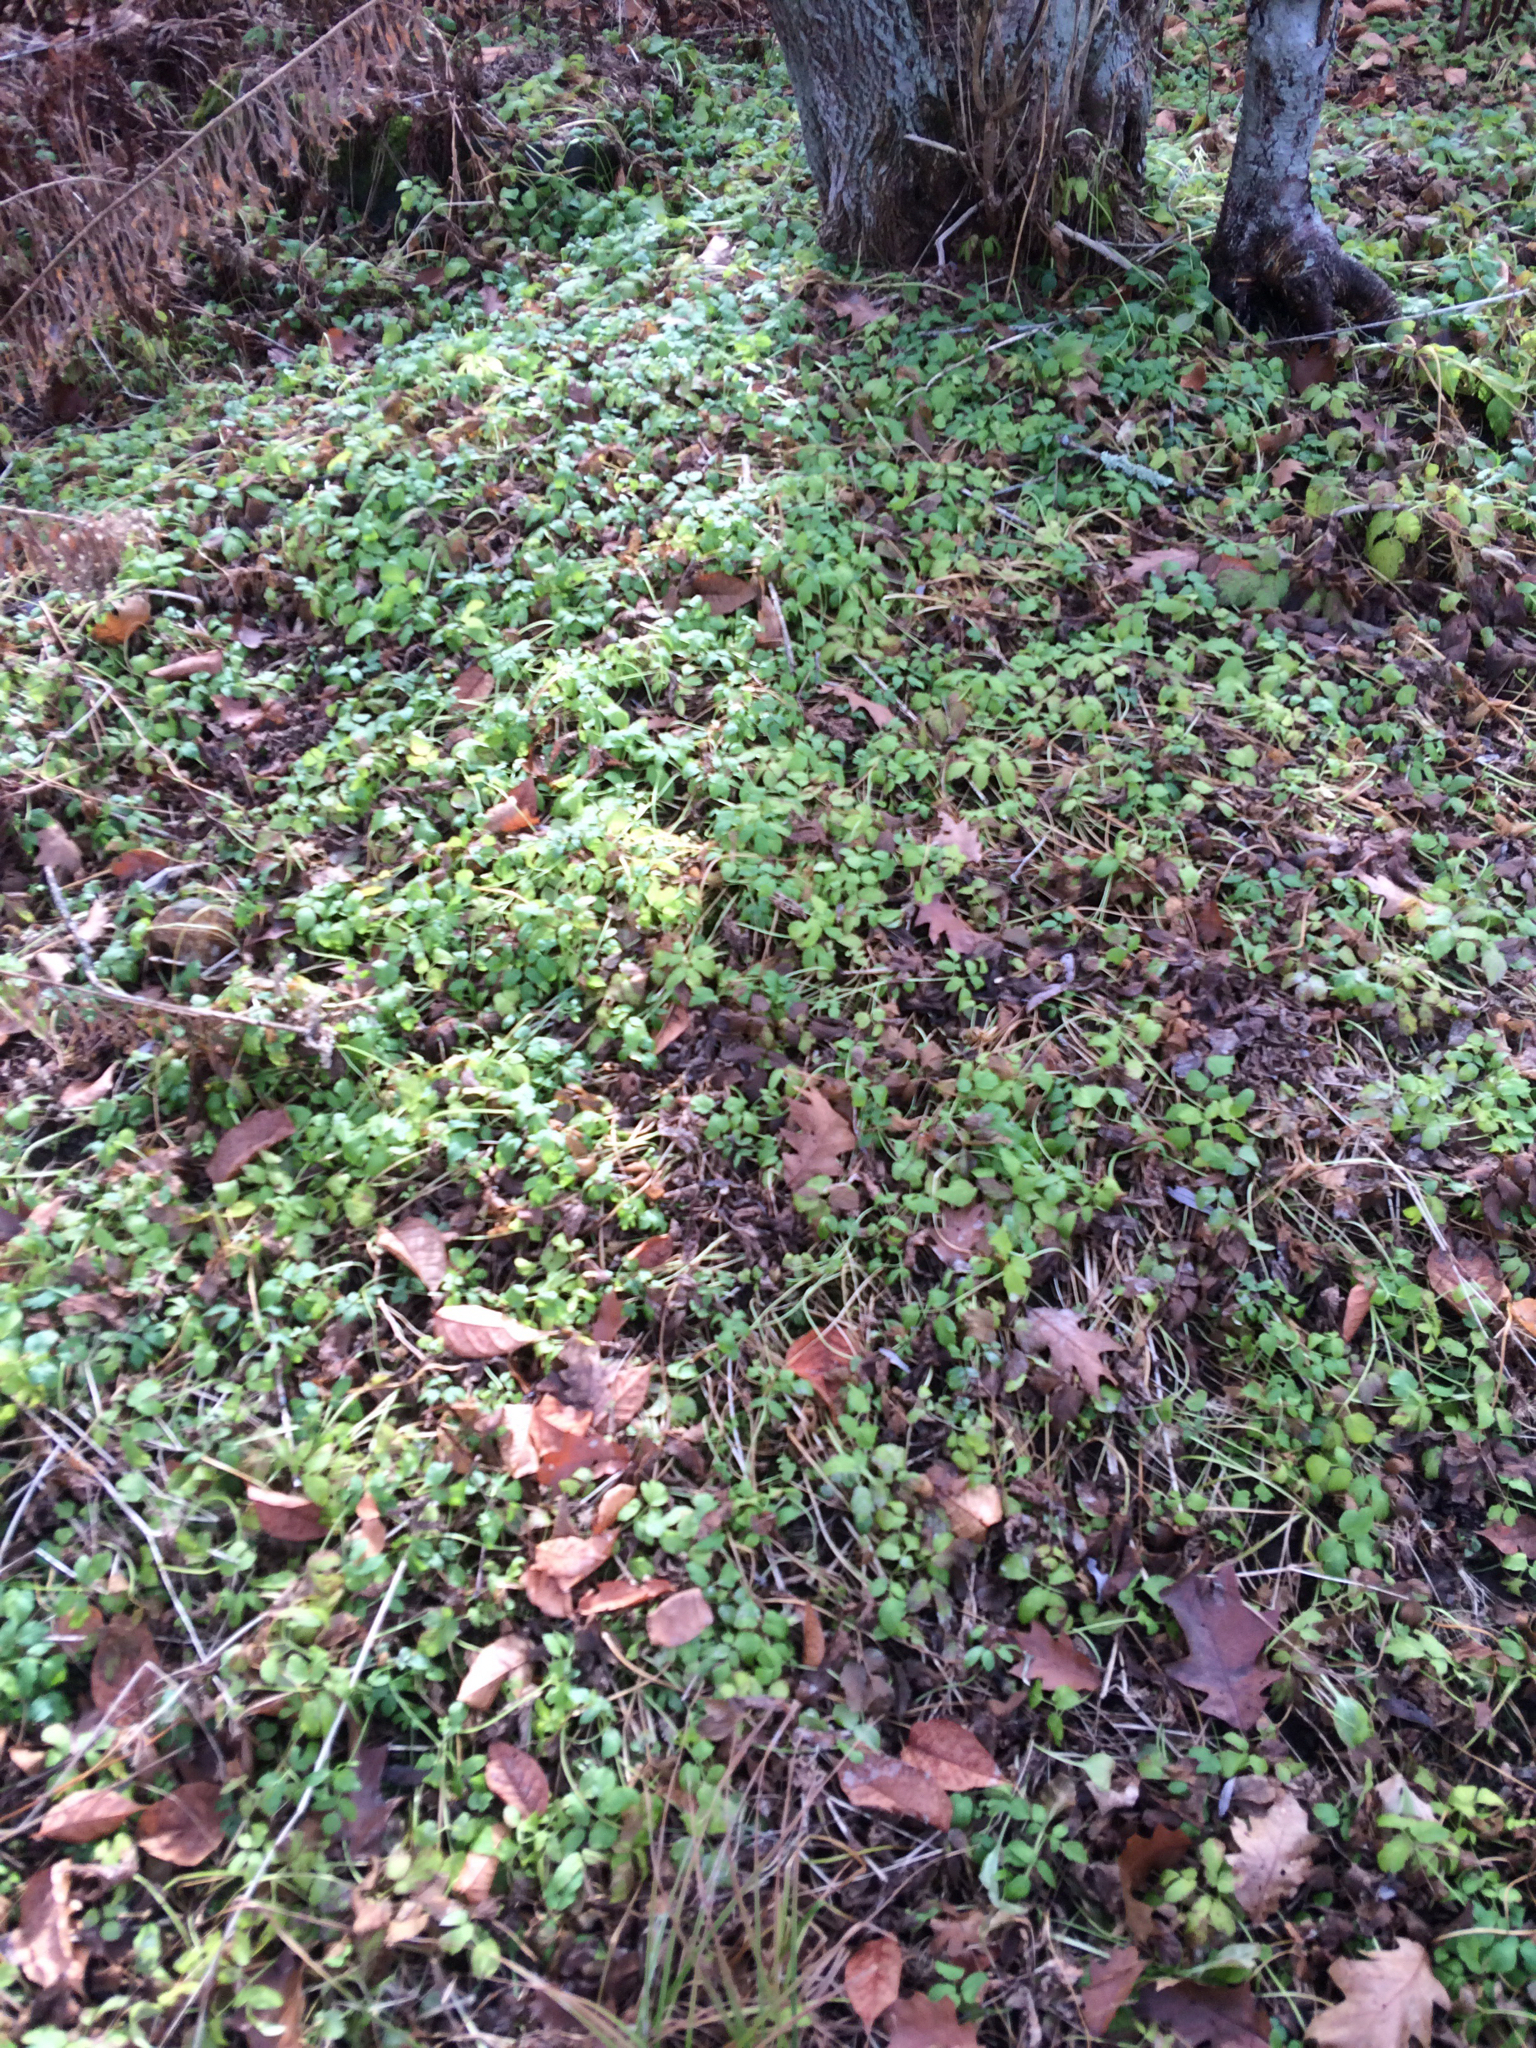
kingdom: Plantae
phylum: Tracheophyta
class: Magnoliopsida
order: Apiales
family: Apiaceae
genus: Aegopodium
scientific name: Aegopodium podagraria
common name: Ground-elder
